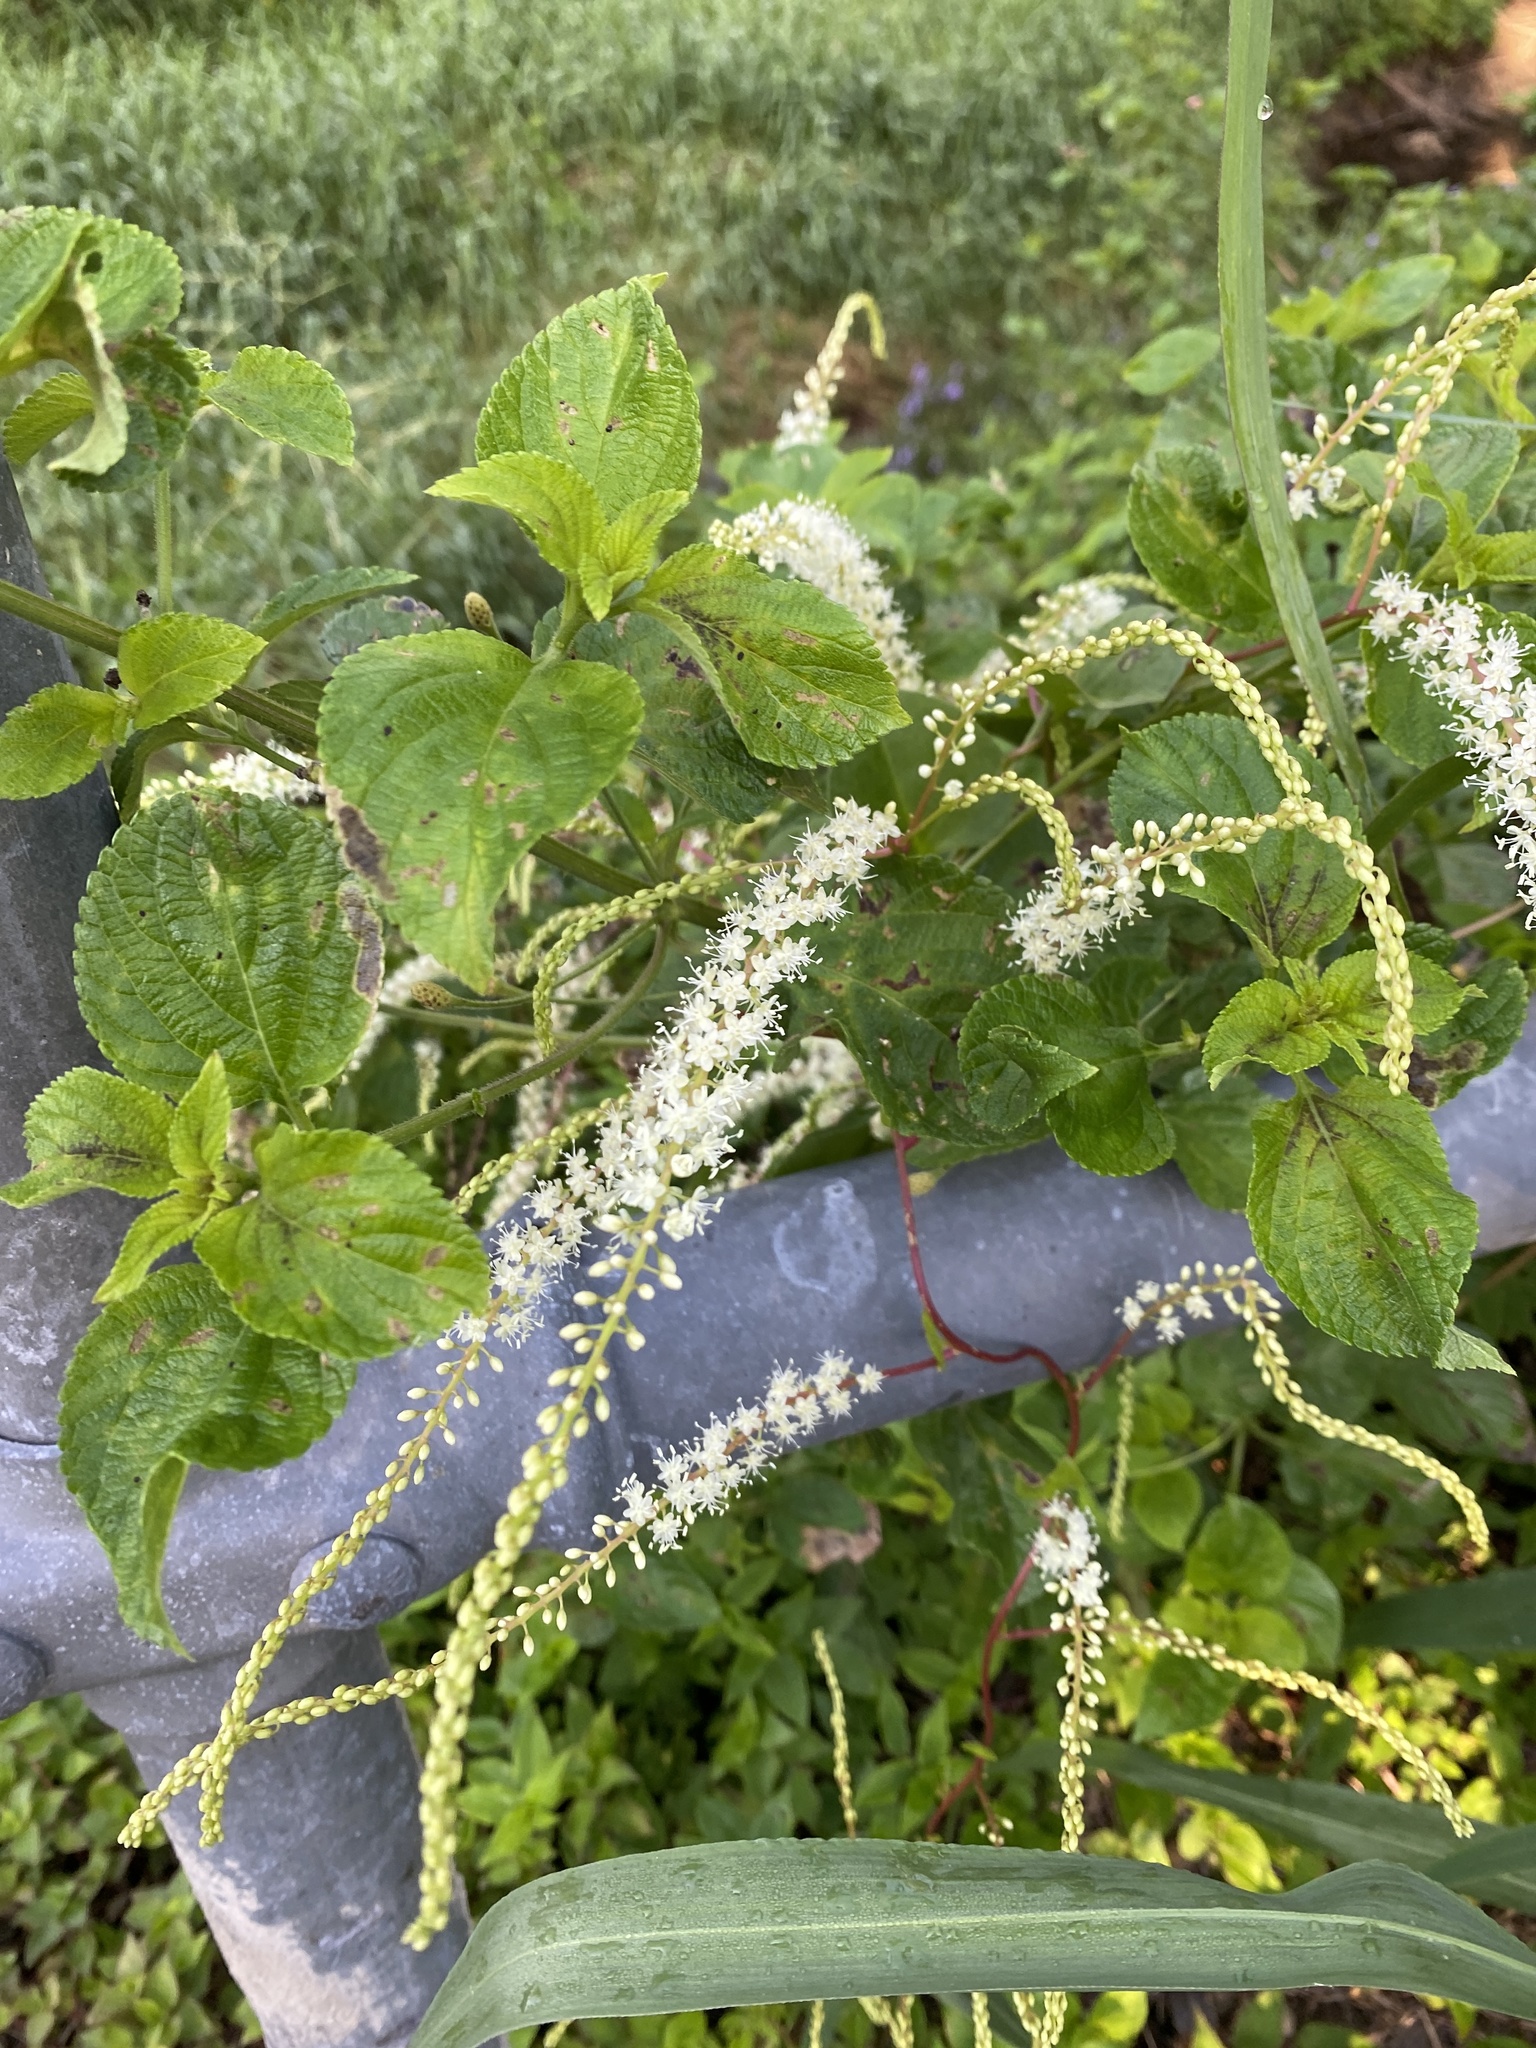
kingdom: Plantae
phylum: Tracheophyta
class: Magnoliopsida
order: Caryophyllales
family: Basellaceae
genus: Anredera
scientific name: Anredera cordifolia
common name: Heartleaf madeiravine
